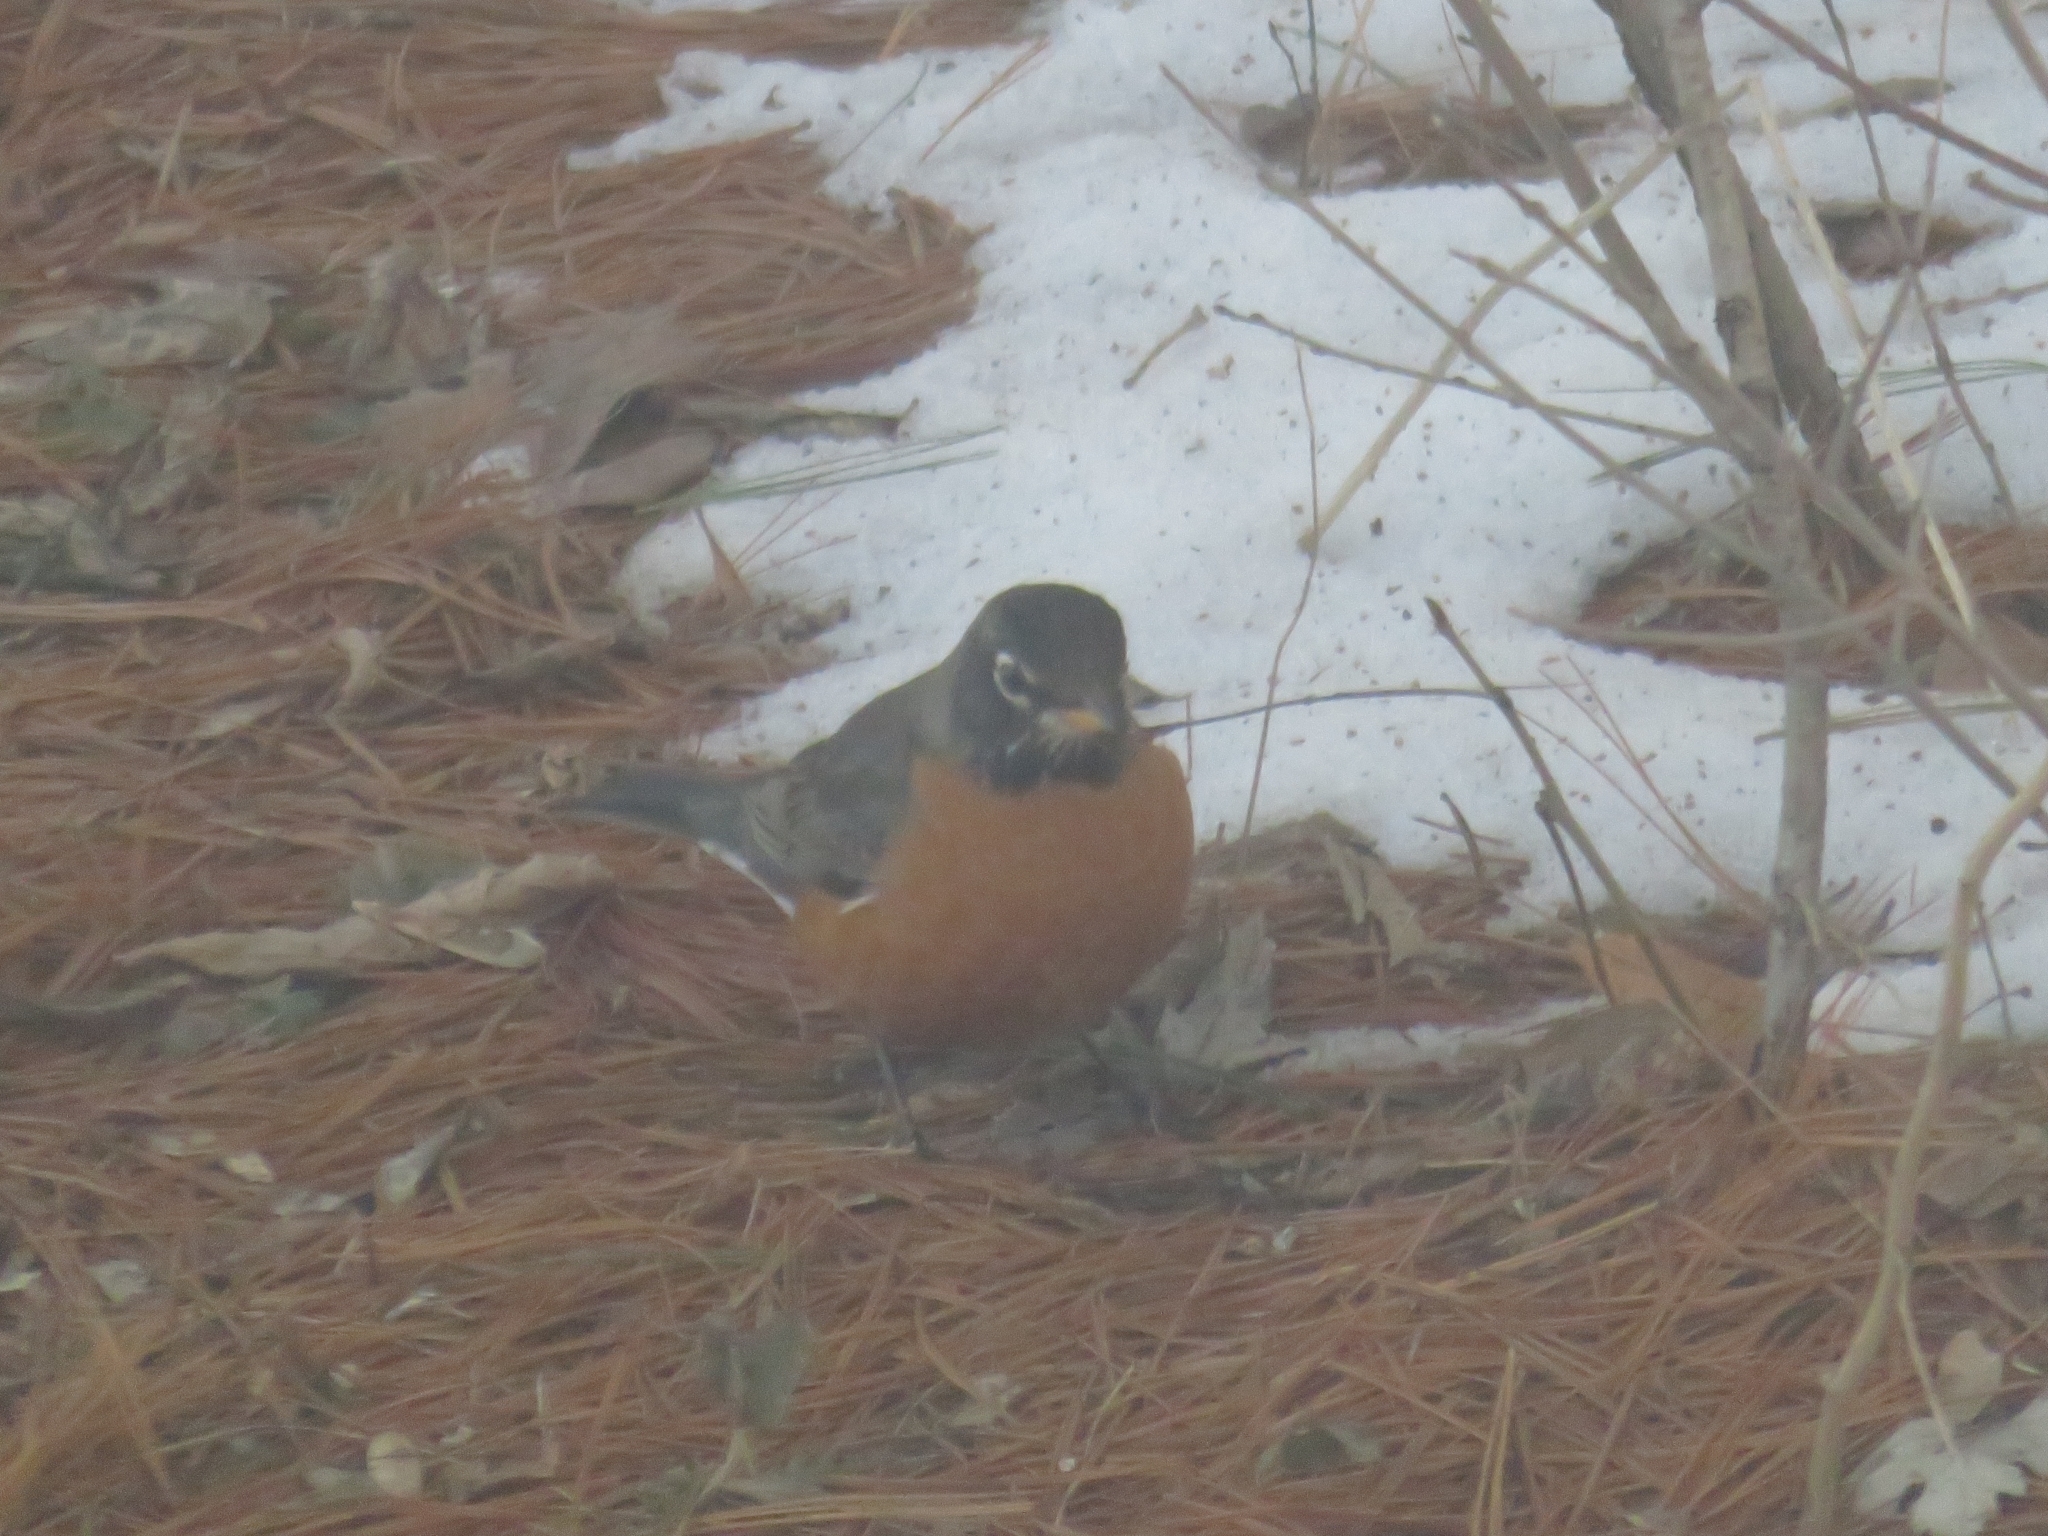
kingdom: Animalia
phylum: Chordata
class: Aves
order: Passeriformes
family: Turdidae
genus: Turdus
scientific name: Turdus migratorius
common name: American robin
